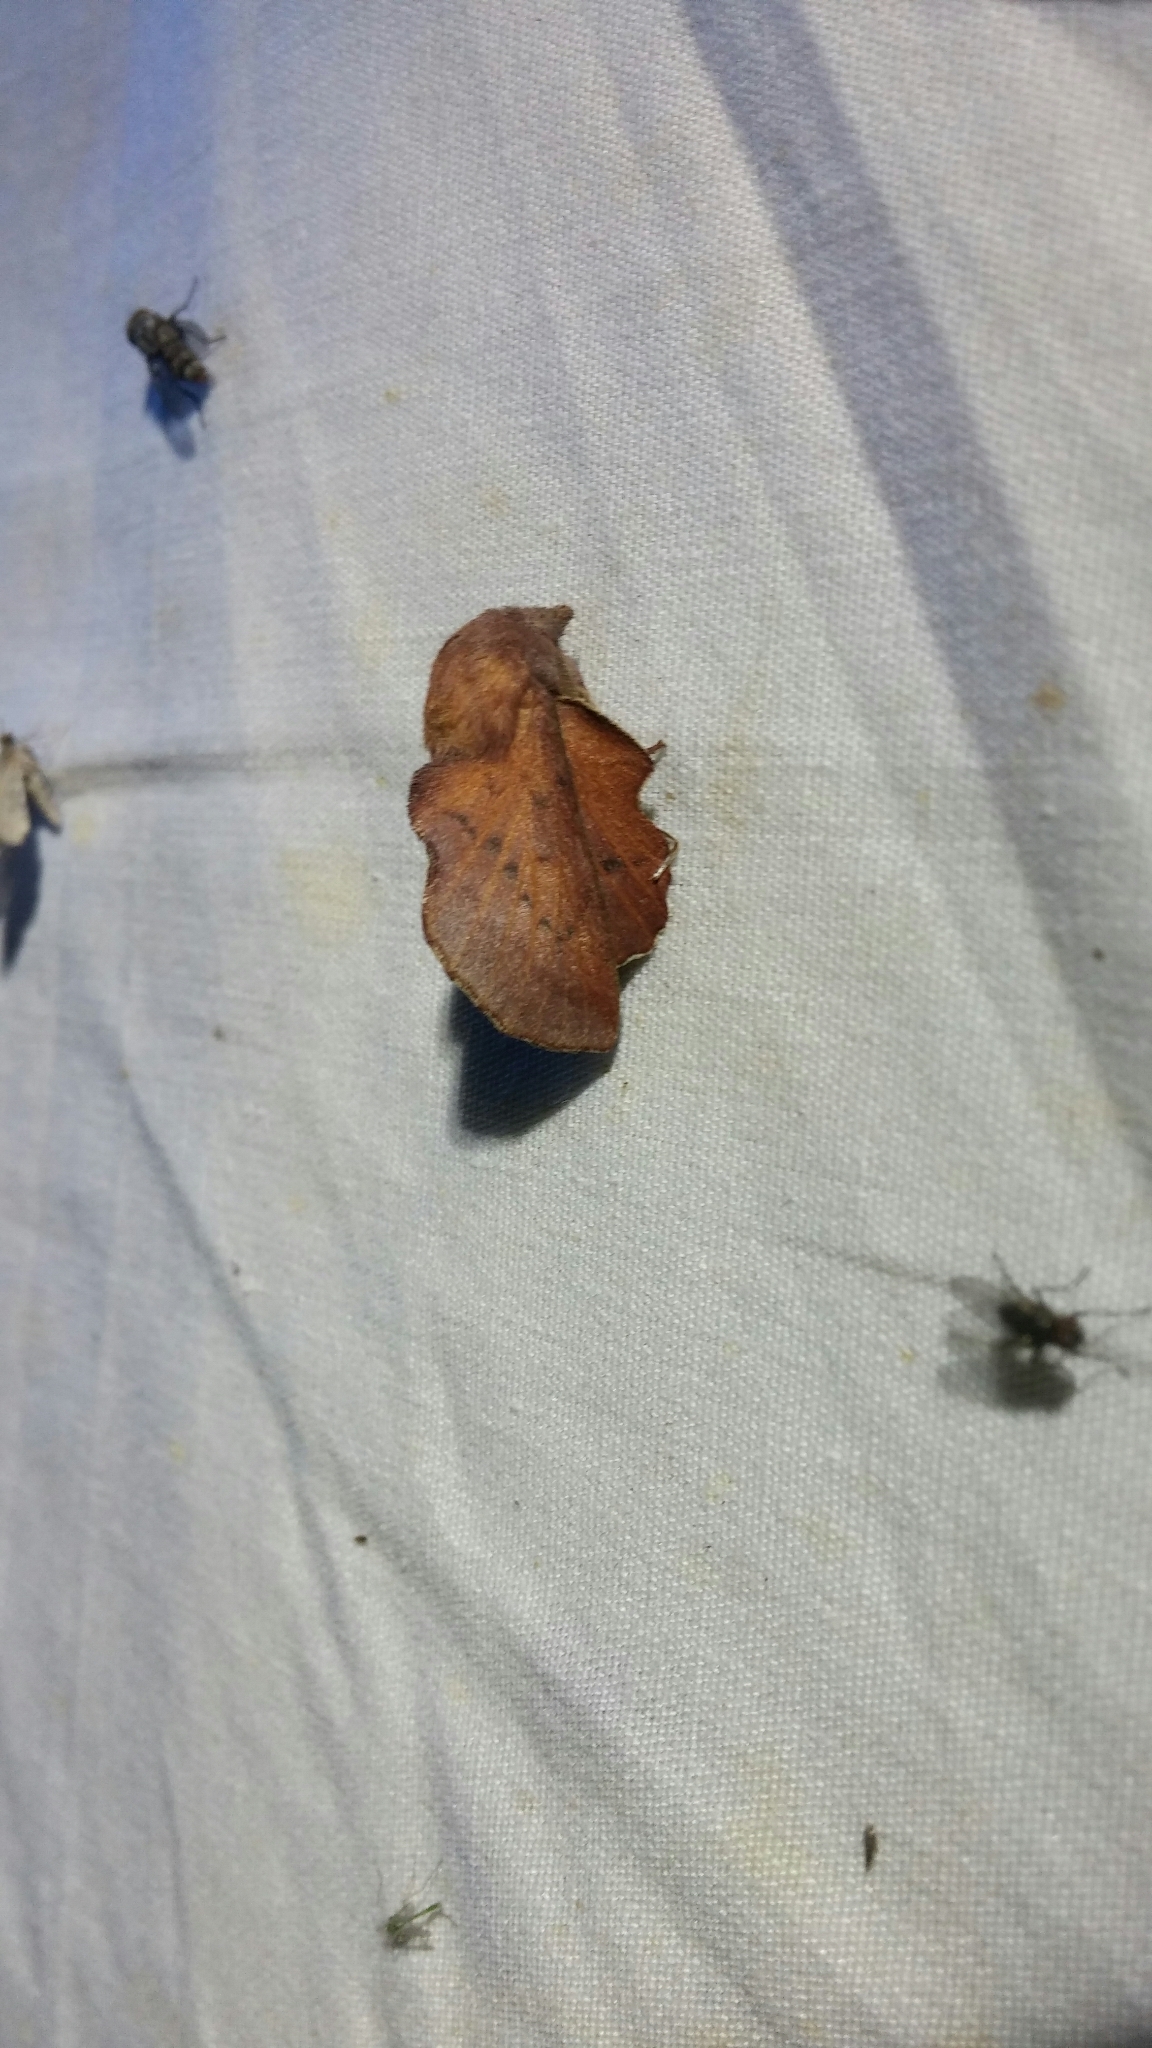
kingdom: Animalia
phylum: Arthropoda
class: Insecta
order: Lepidoptera
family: Lasiocampidae
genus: Phyllodesma
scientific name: Phyllodesma americana
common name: American lappet moth
